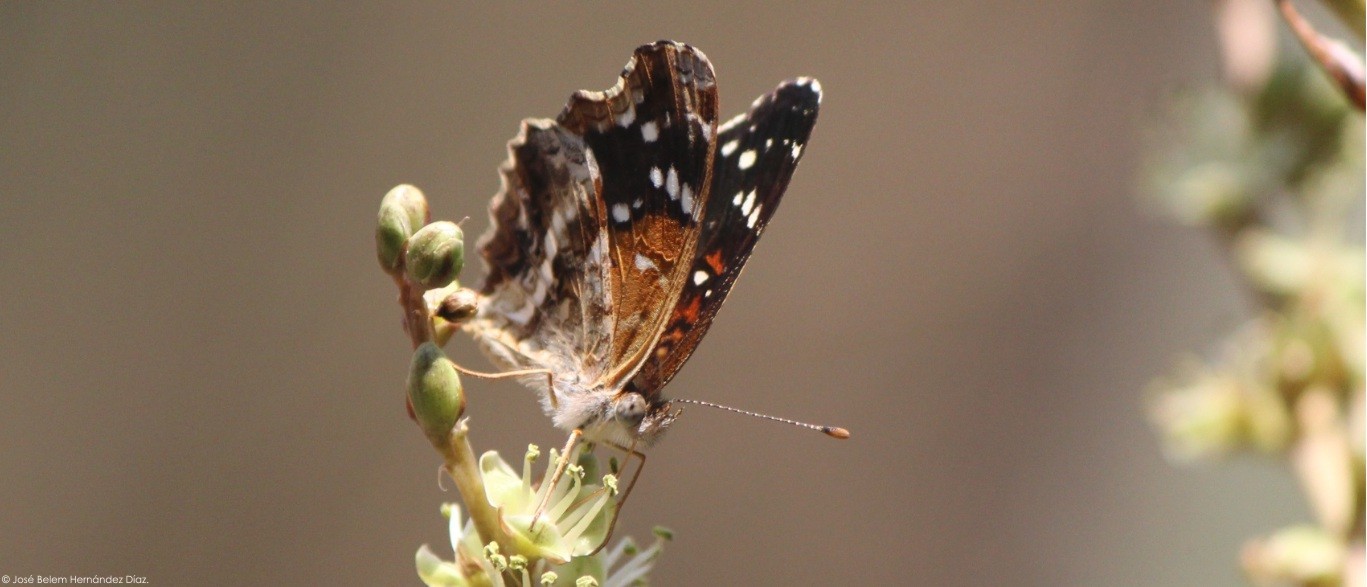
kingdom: Animalia
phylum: Arthropoda
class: Insecta
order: Lepidoptera
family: Nymphalidae
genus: Anthanassa
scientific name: Anthanassa texana
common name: Texan crescent
